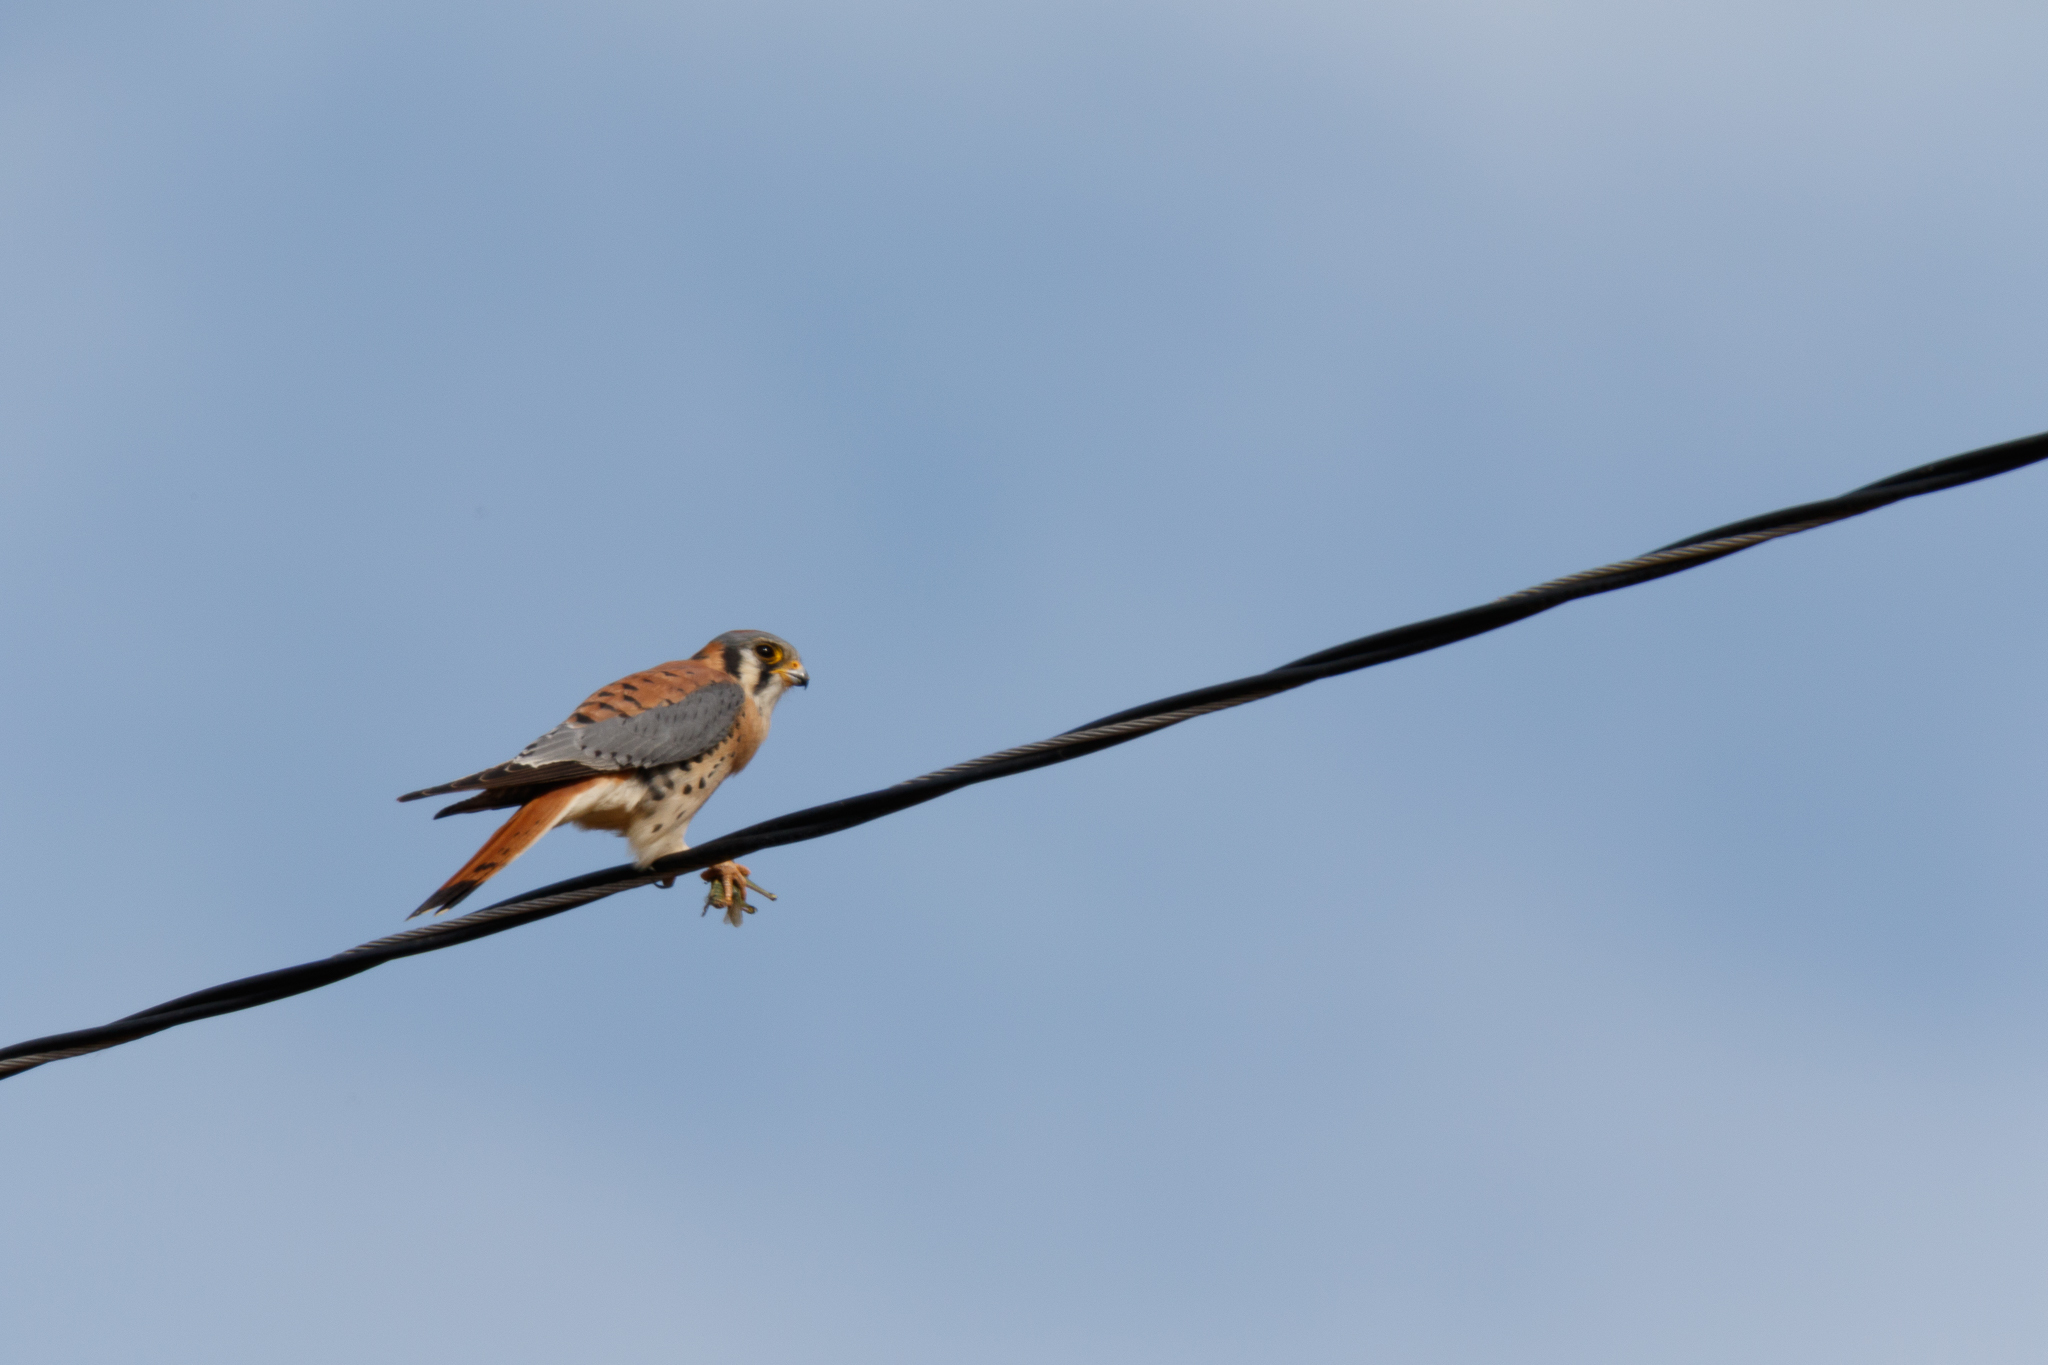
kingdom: Animalia
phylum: Chordata
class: Aves
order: Falconiformes
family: Falconidae
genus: Falco
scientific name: Falco sparverius
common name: American kestrel
